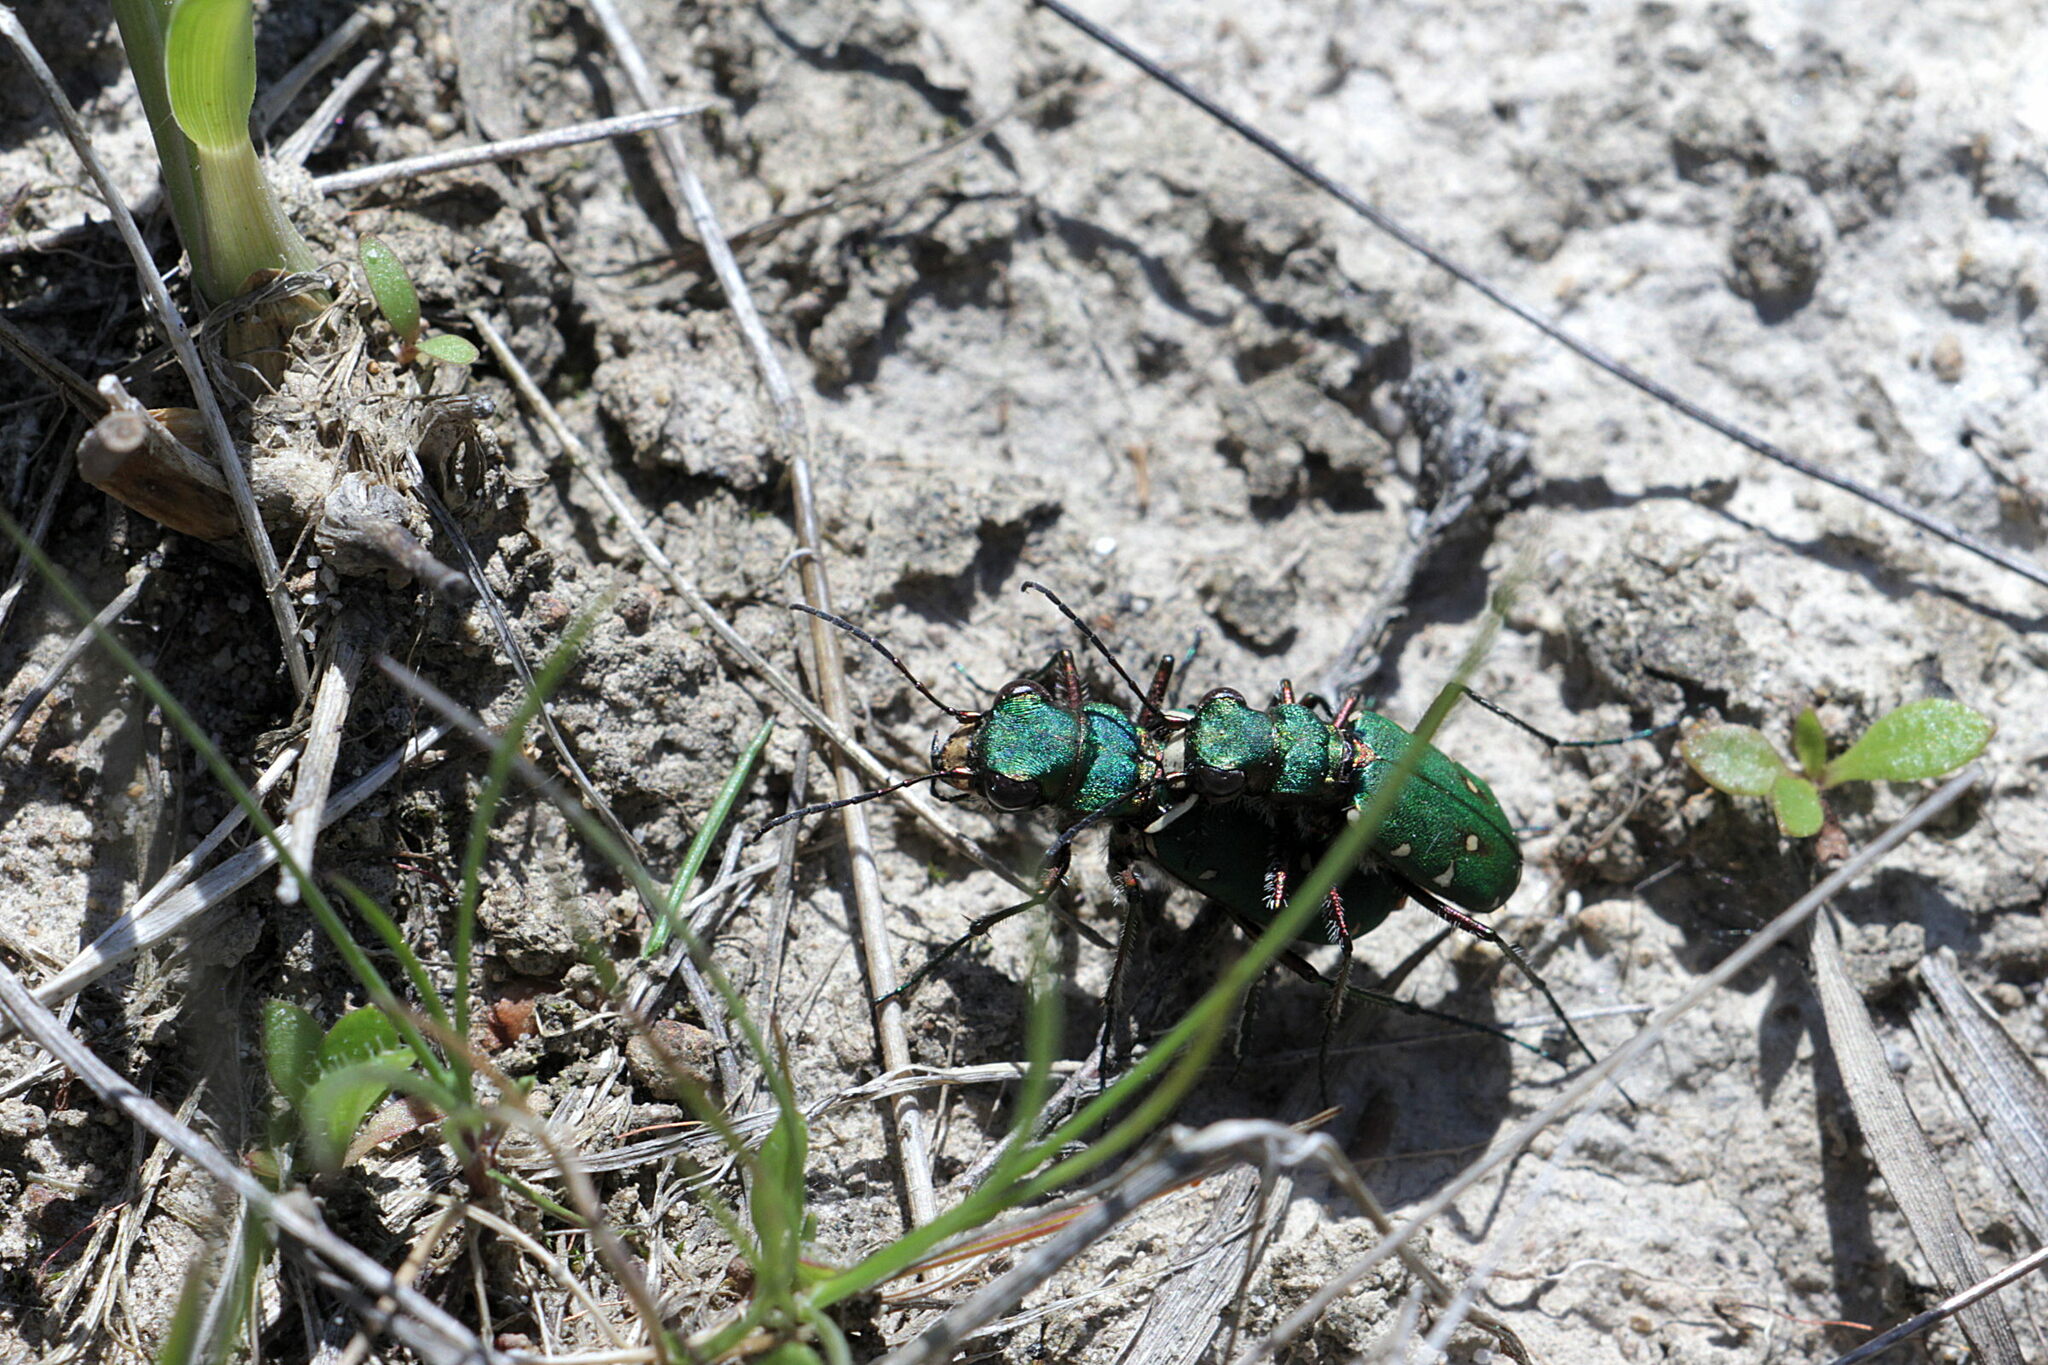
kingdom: Animalia
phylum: Arthropoda
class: Insecta
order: Coleoptera
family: Carabidae
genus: Cicindela
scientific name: Cicindela campestris
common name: Common tiger beetle
